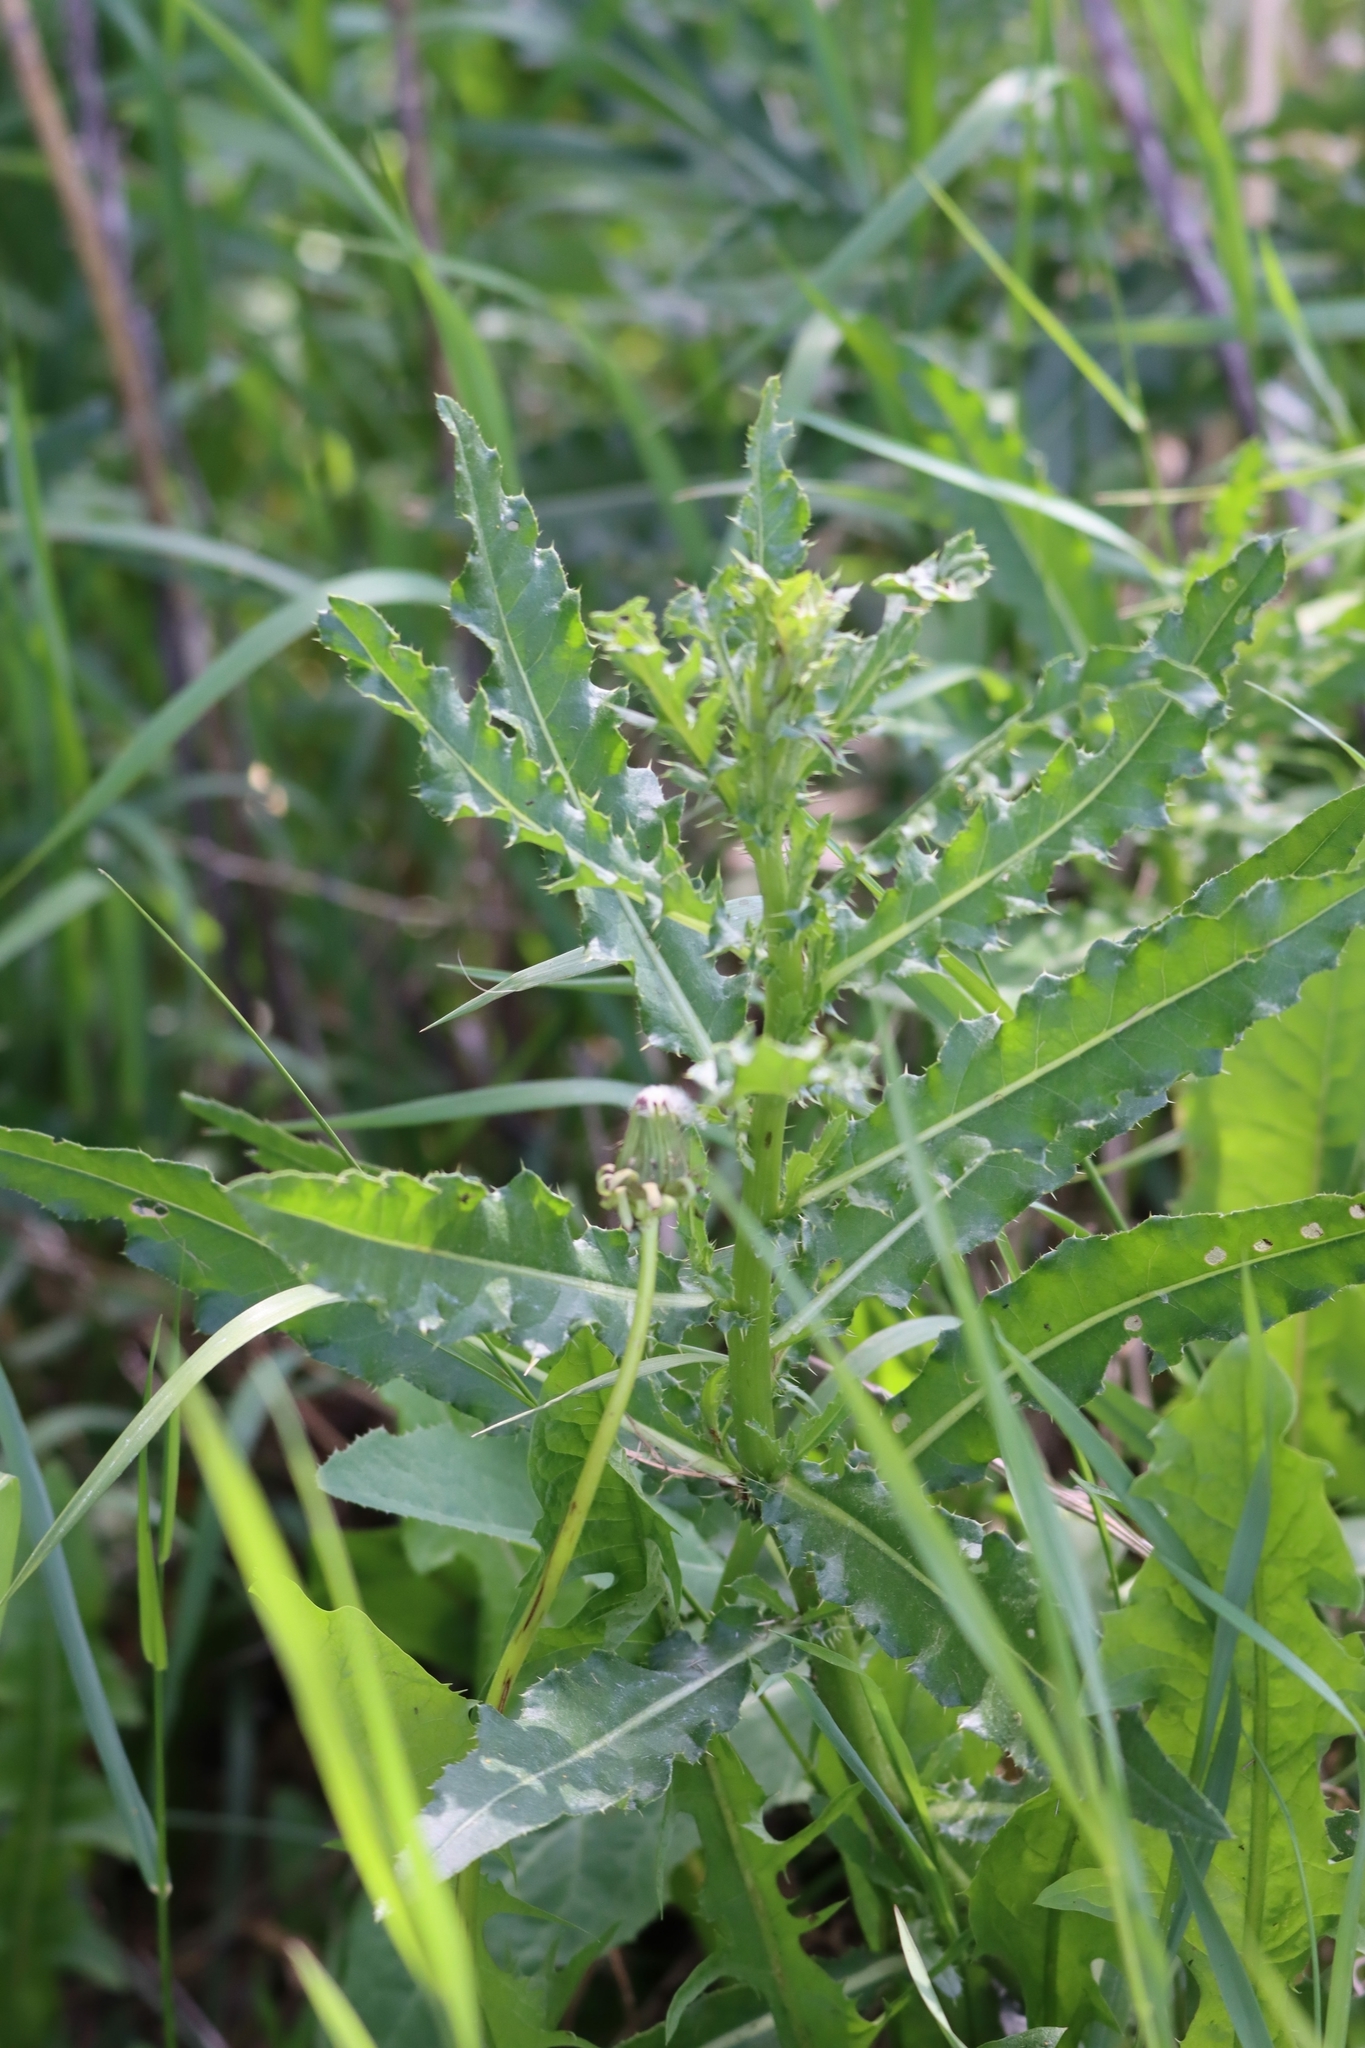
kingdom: Plantae
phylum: Tracheophyta
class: Magnoliopsida
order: Asterales
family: Asteraceae
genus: Cirsium
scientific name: Cirsium arvense
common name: Creeping thistle
